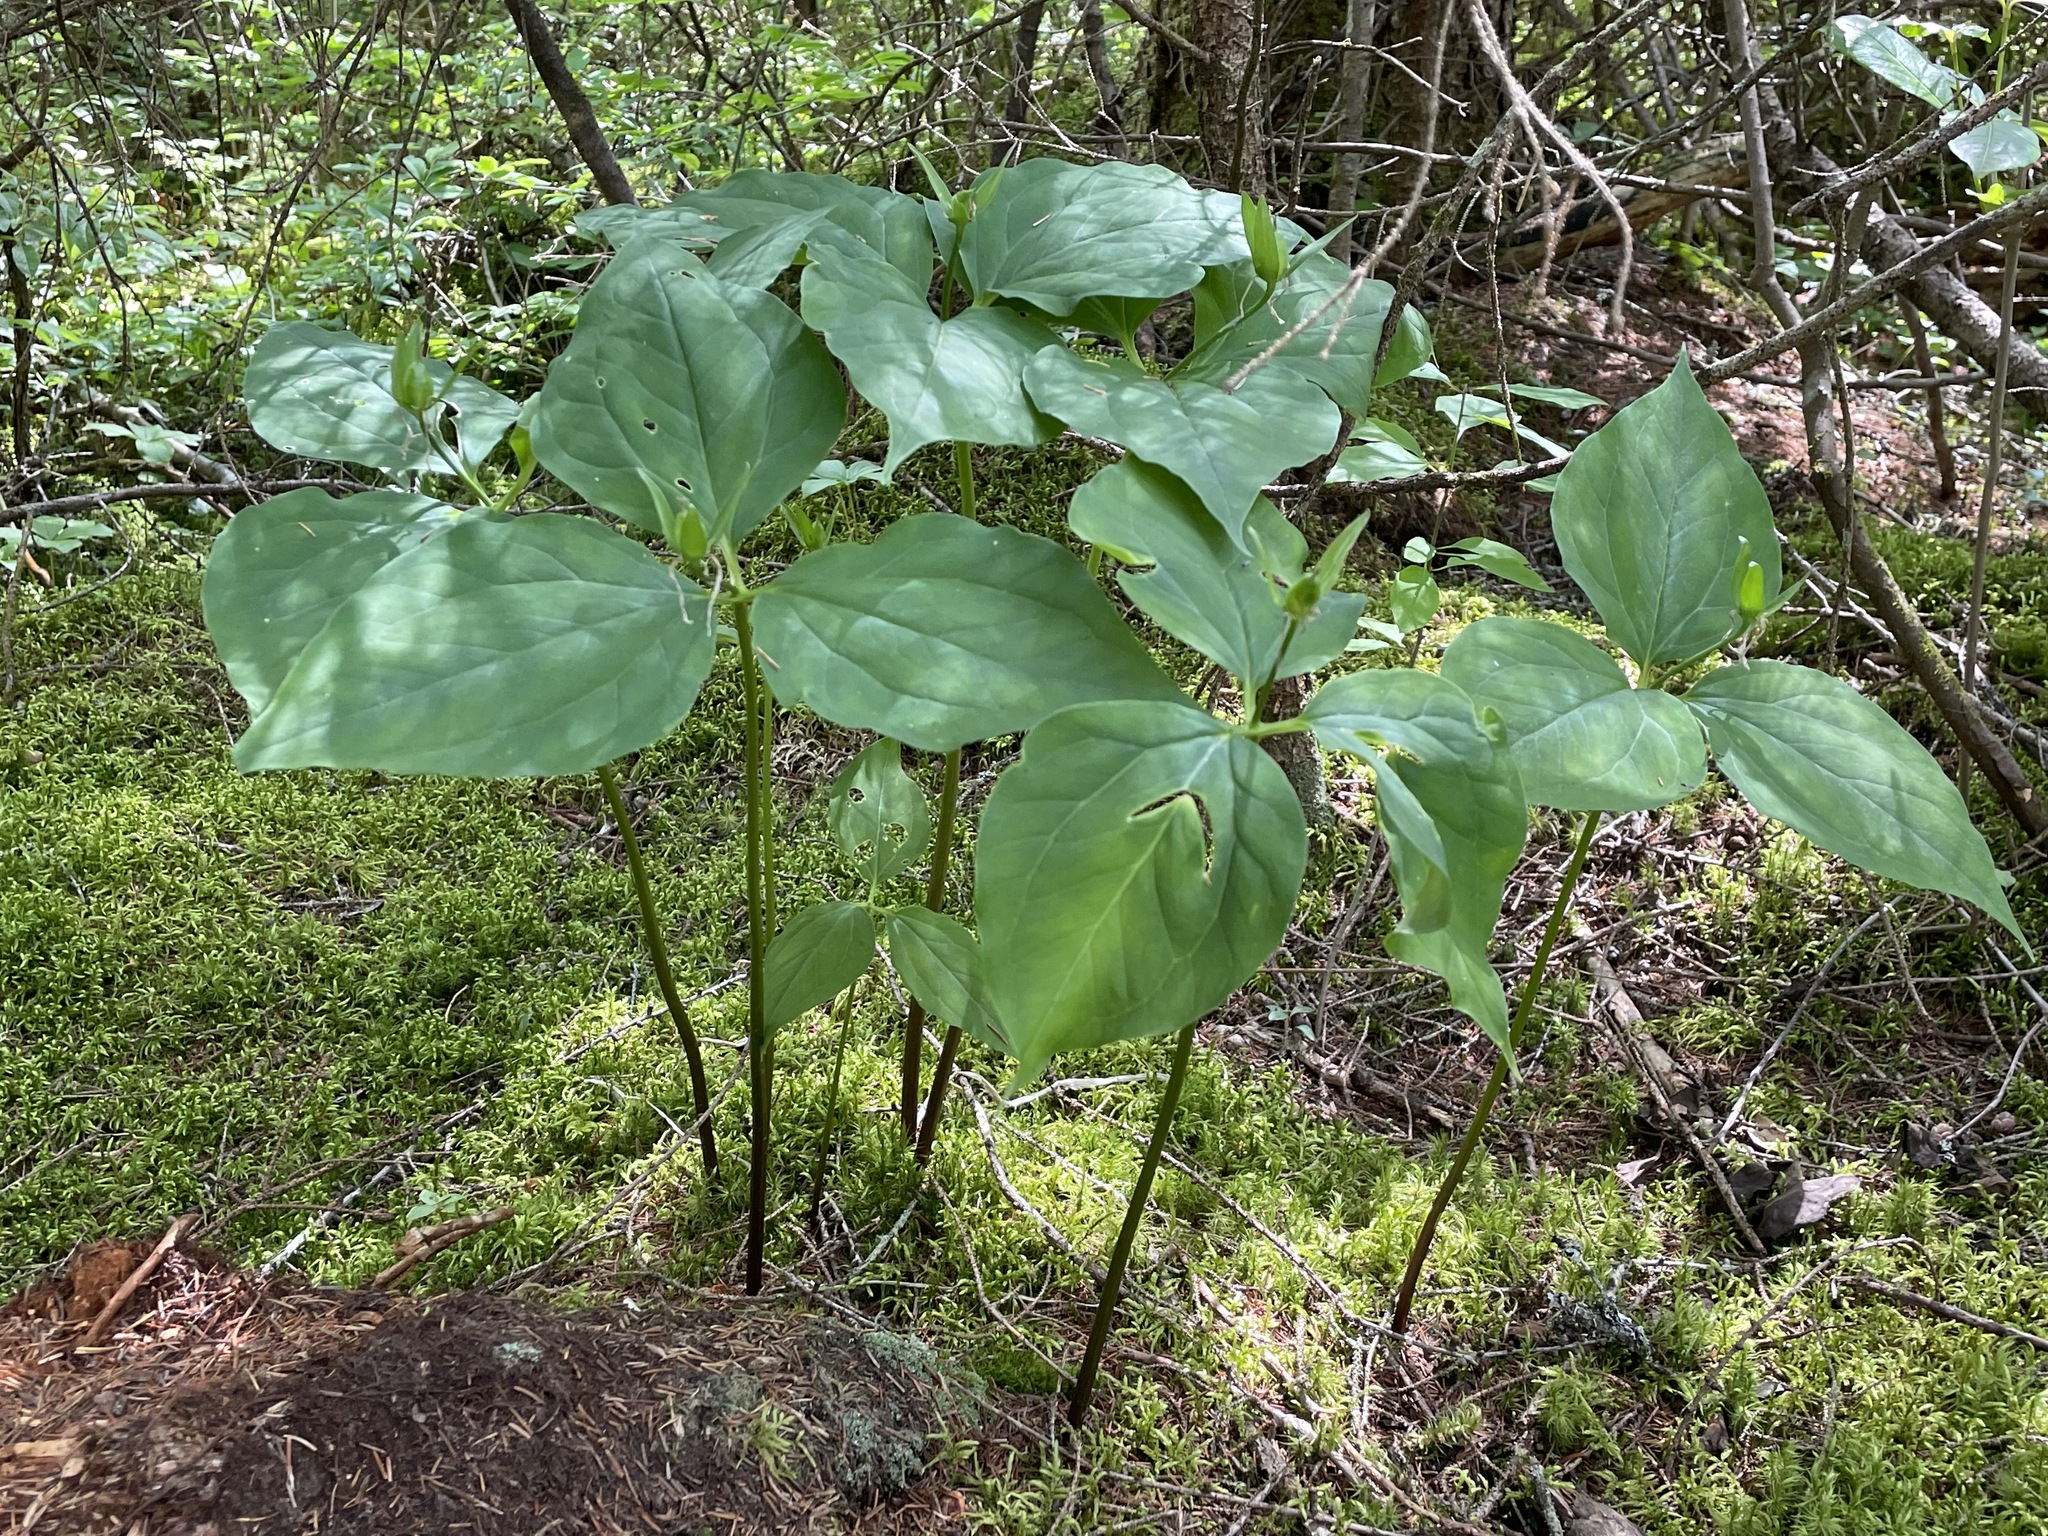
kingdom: Plantae
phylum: Tracheophyta
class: Liliopsida
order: Liliales
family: Melanthiaceae
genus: Trillium
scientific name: Trillium undulatum
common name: Paint trillium
